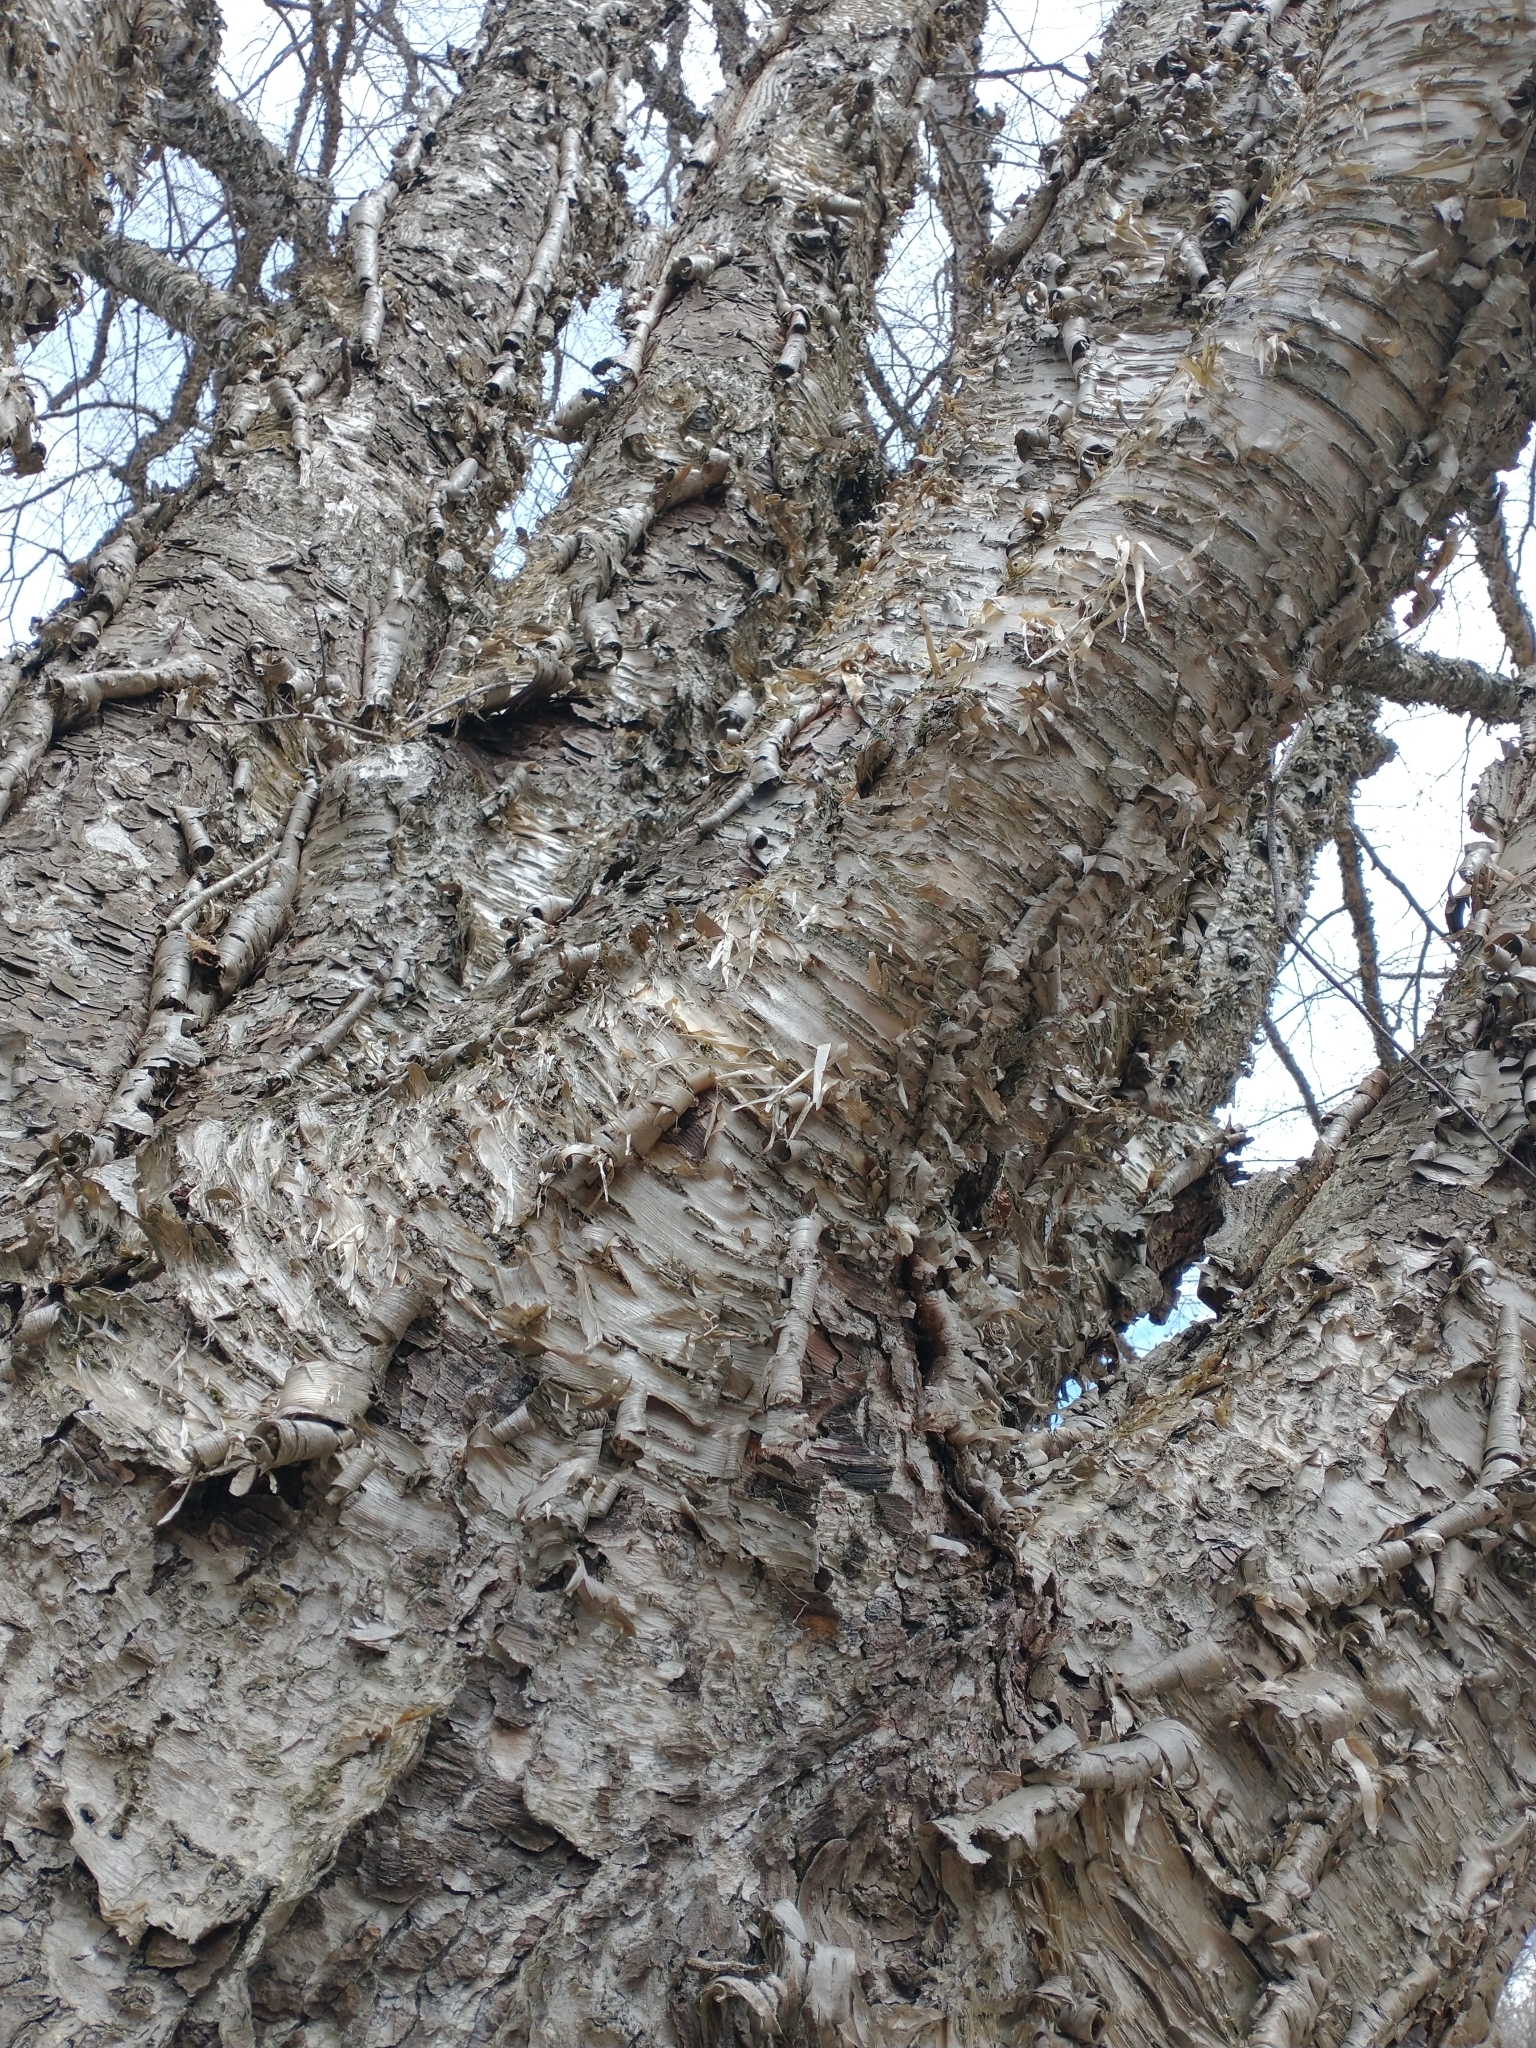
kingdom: Plantae
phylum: Tracheophyta
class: Magnoliopsida
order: Fagales
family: Betulaceae
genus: Betula
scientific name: Betula alleghaniensis
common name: Yellow birch
